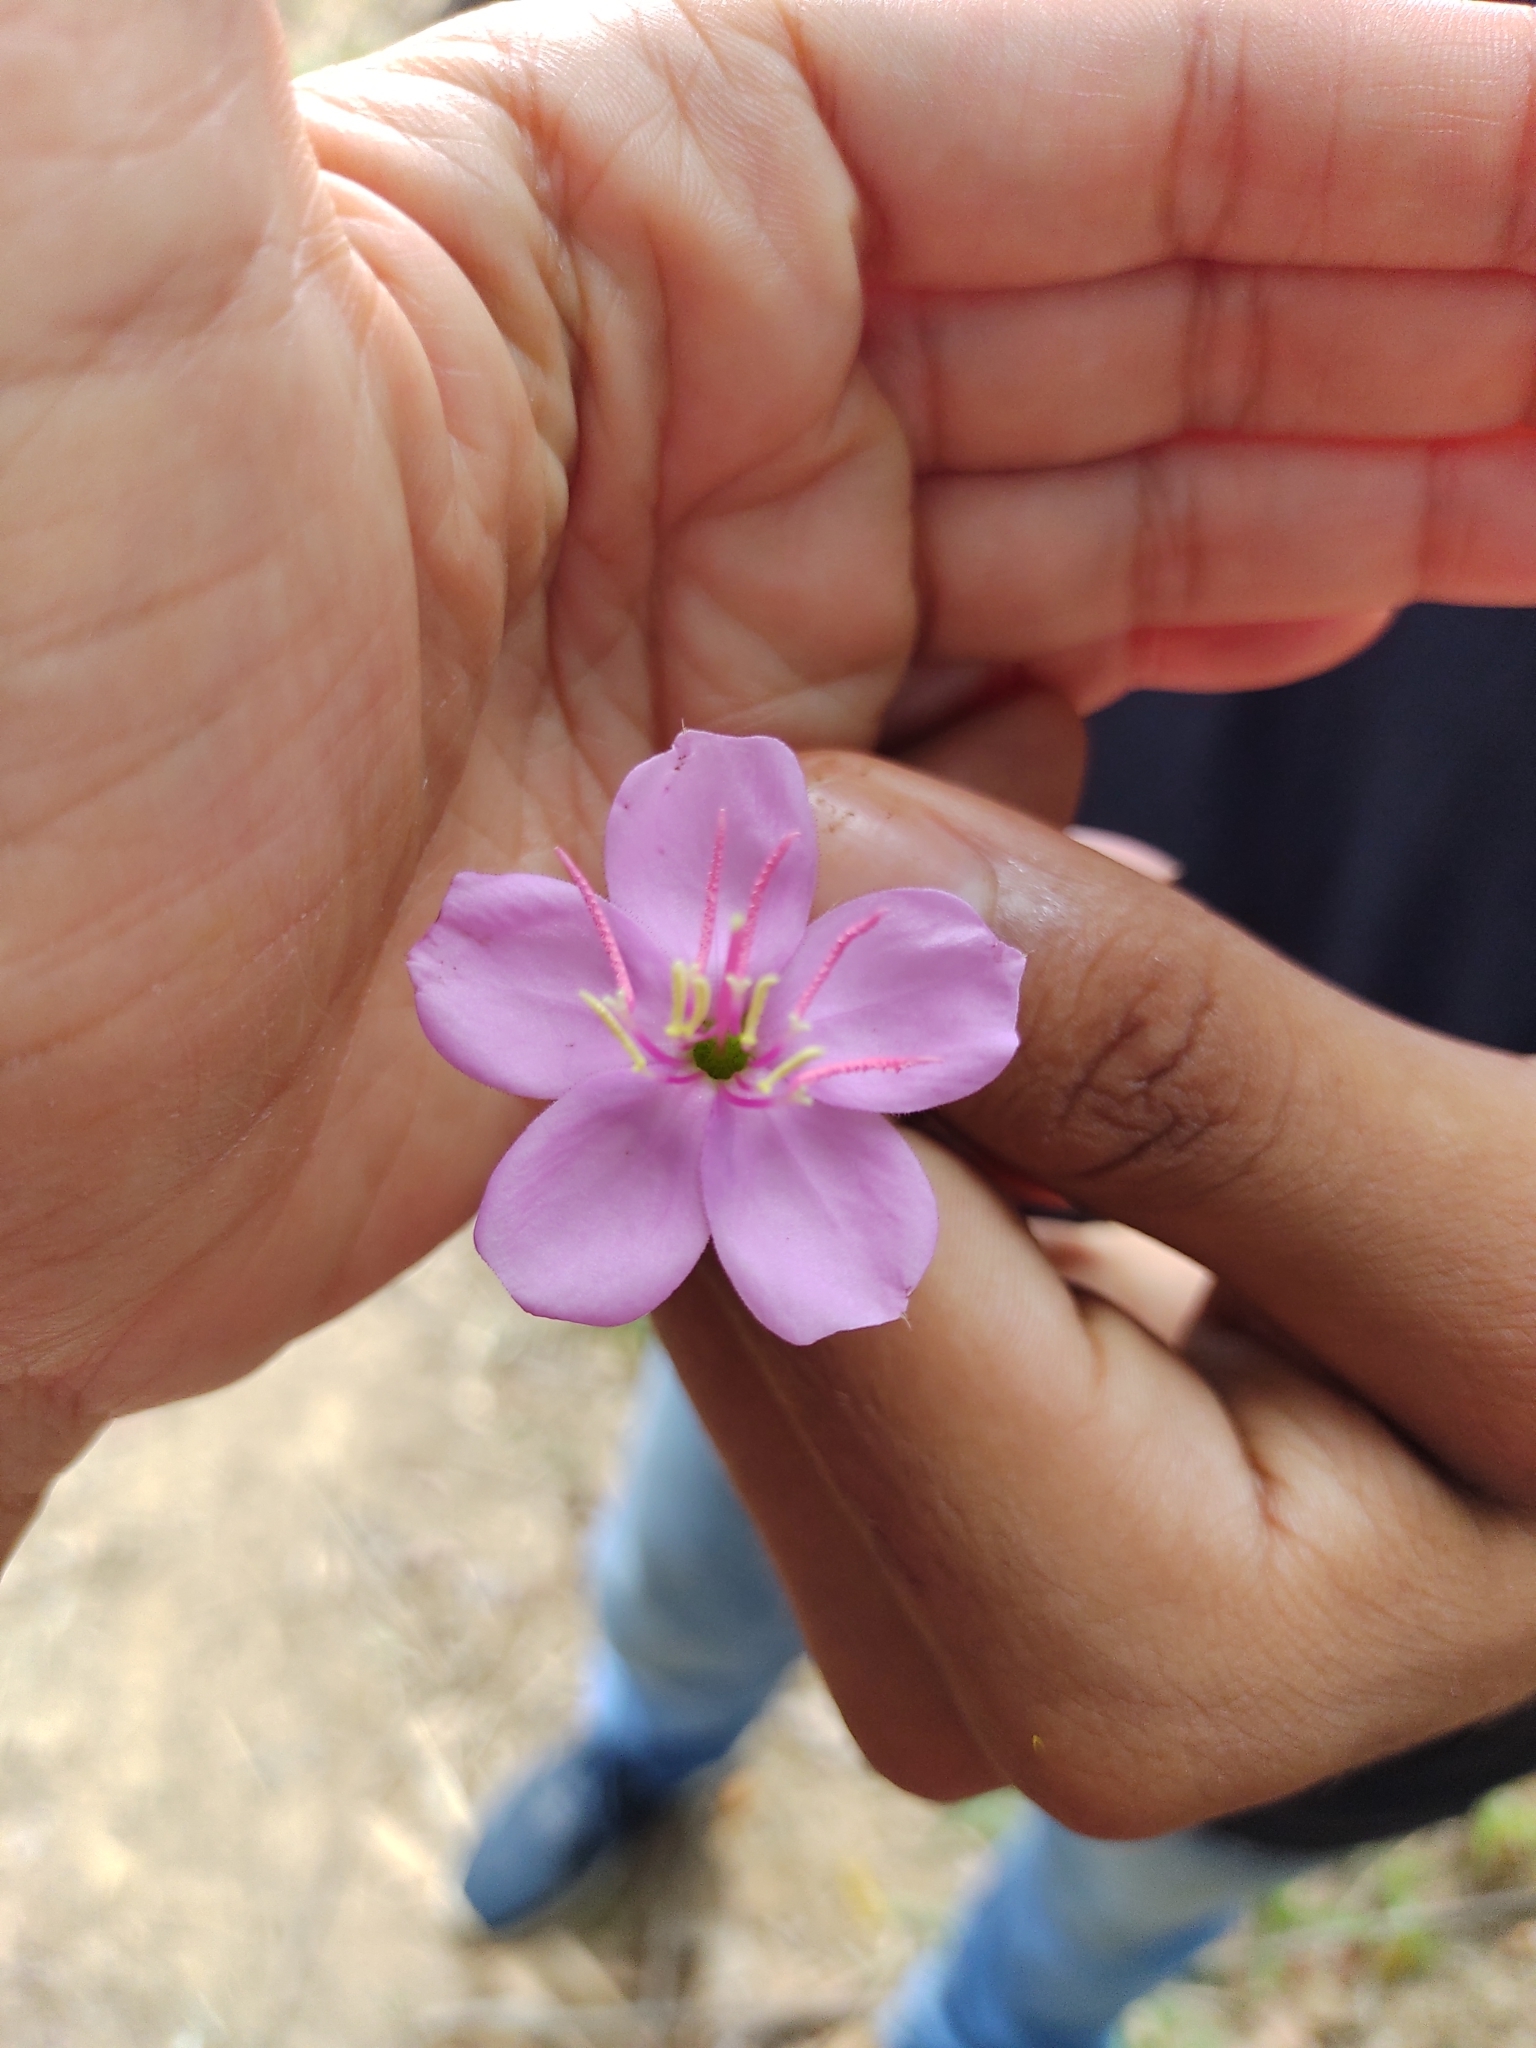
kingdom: Plantae
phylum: Tracheophyta
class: Magnoliopsida
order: Myrtales
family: Melastomataceae
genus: Pterogastra
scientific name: Pterogastra divaricata
